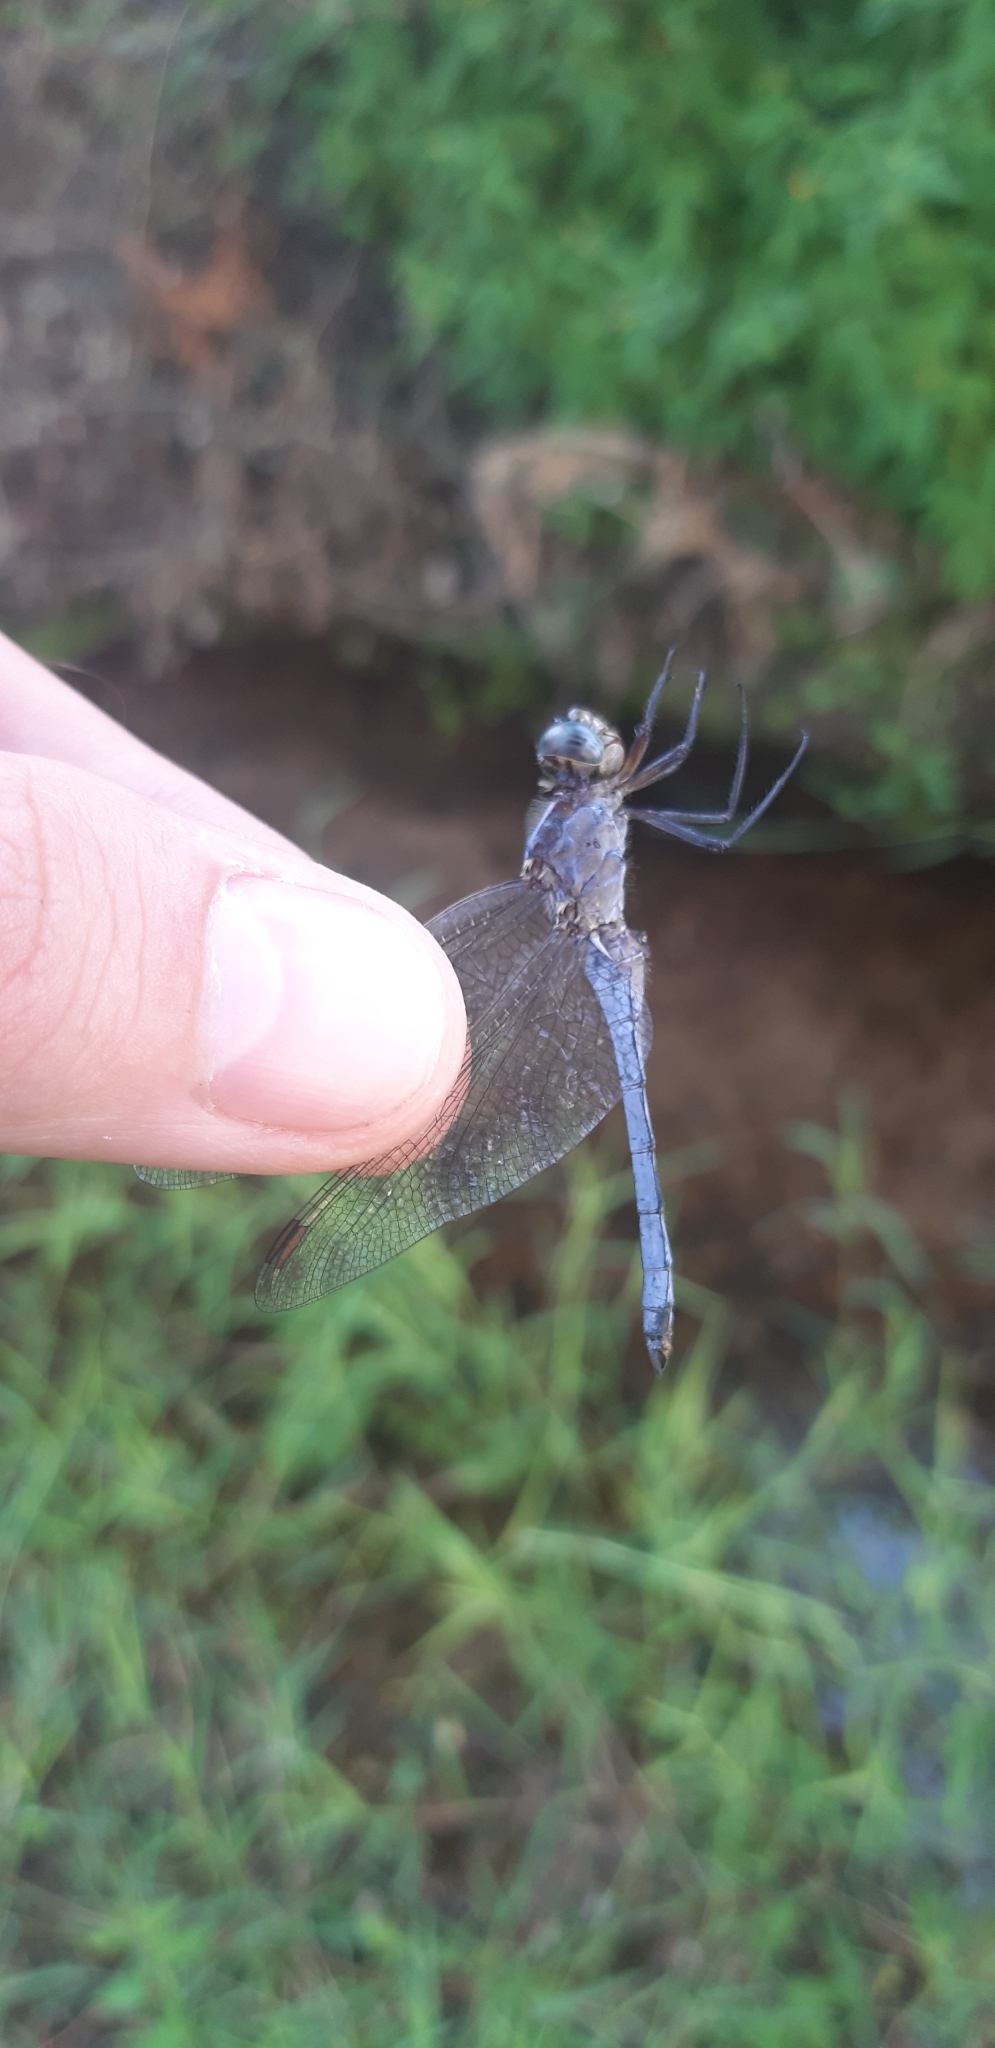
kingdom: Animalia
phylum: Arthropoda
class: Insecta
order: Odonata
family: Libellulidae
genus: Orthetrum
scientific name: Orthetrum coerulescens
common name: Keeled skimmer
